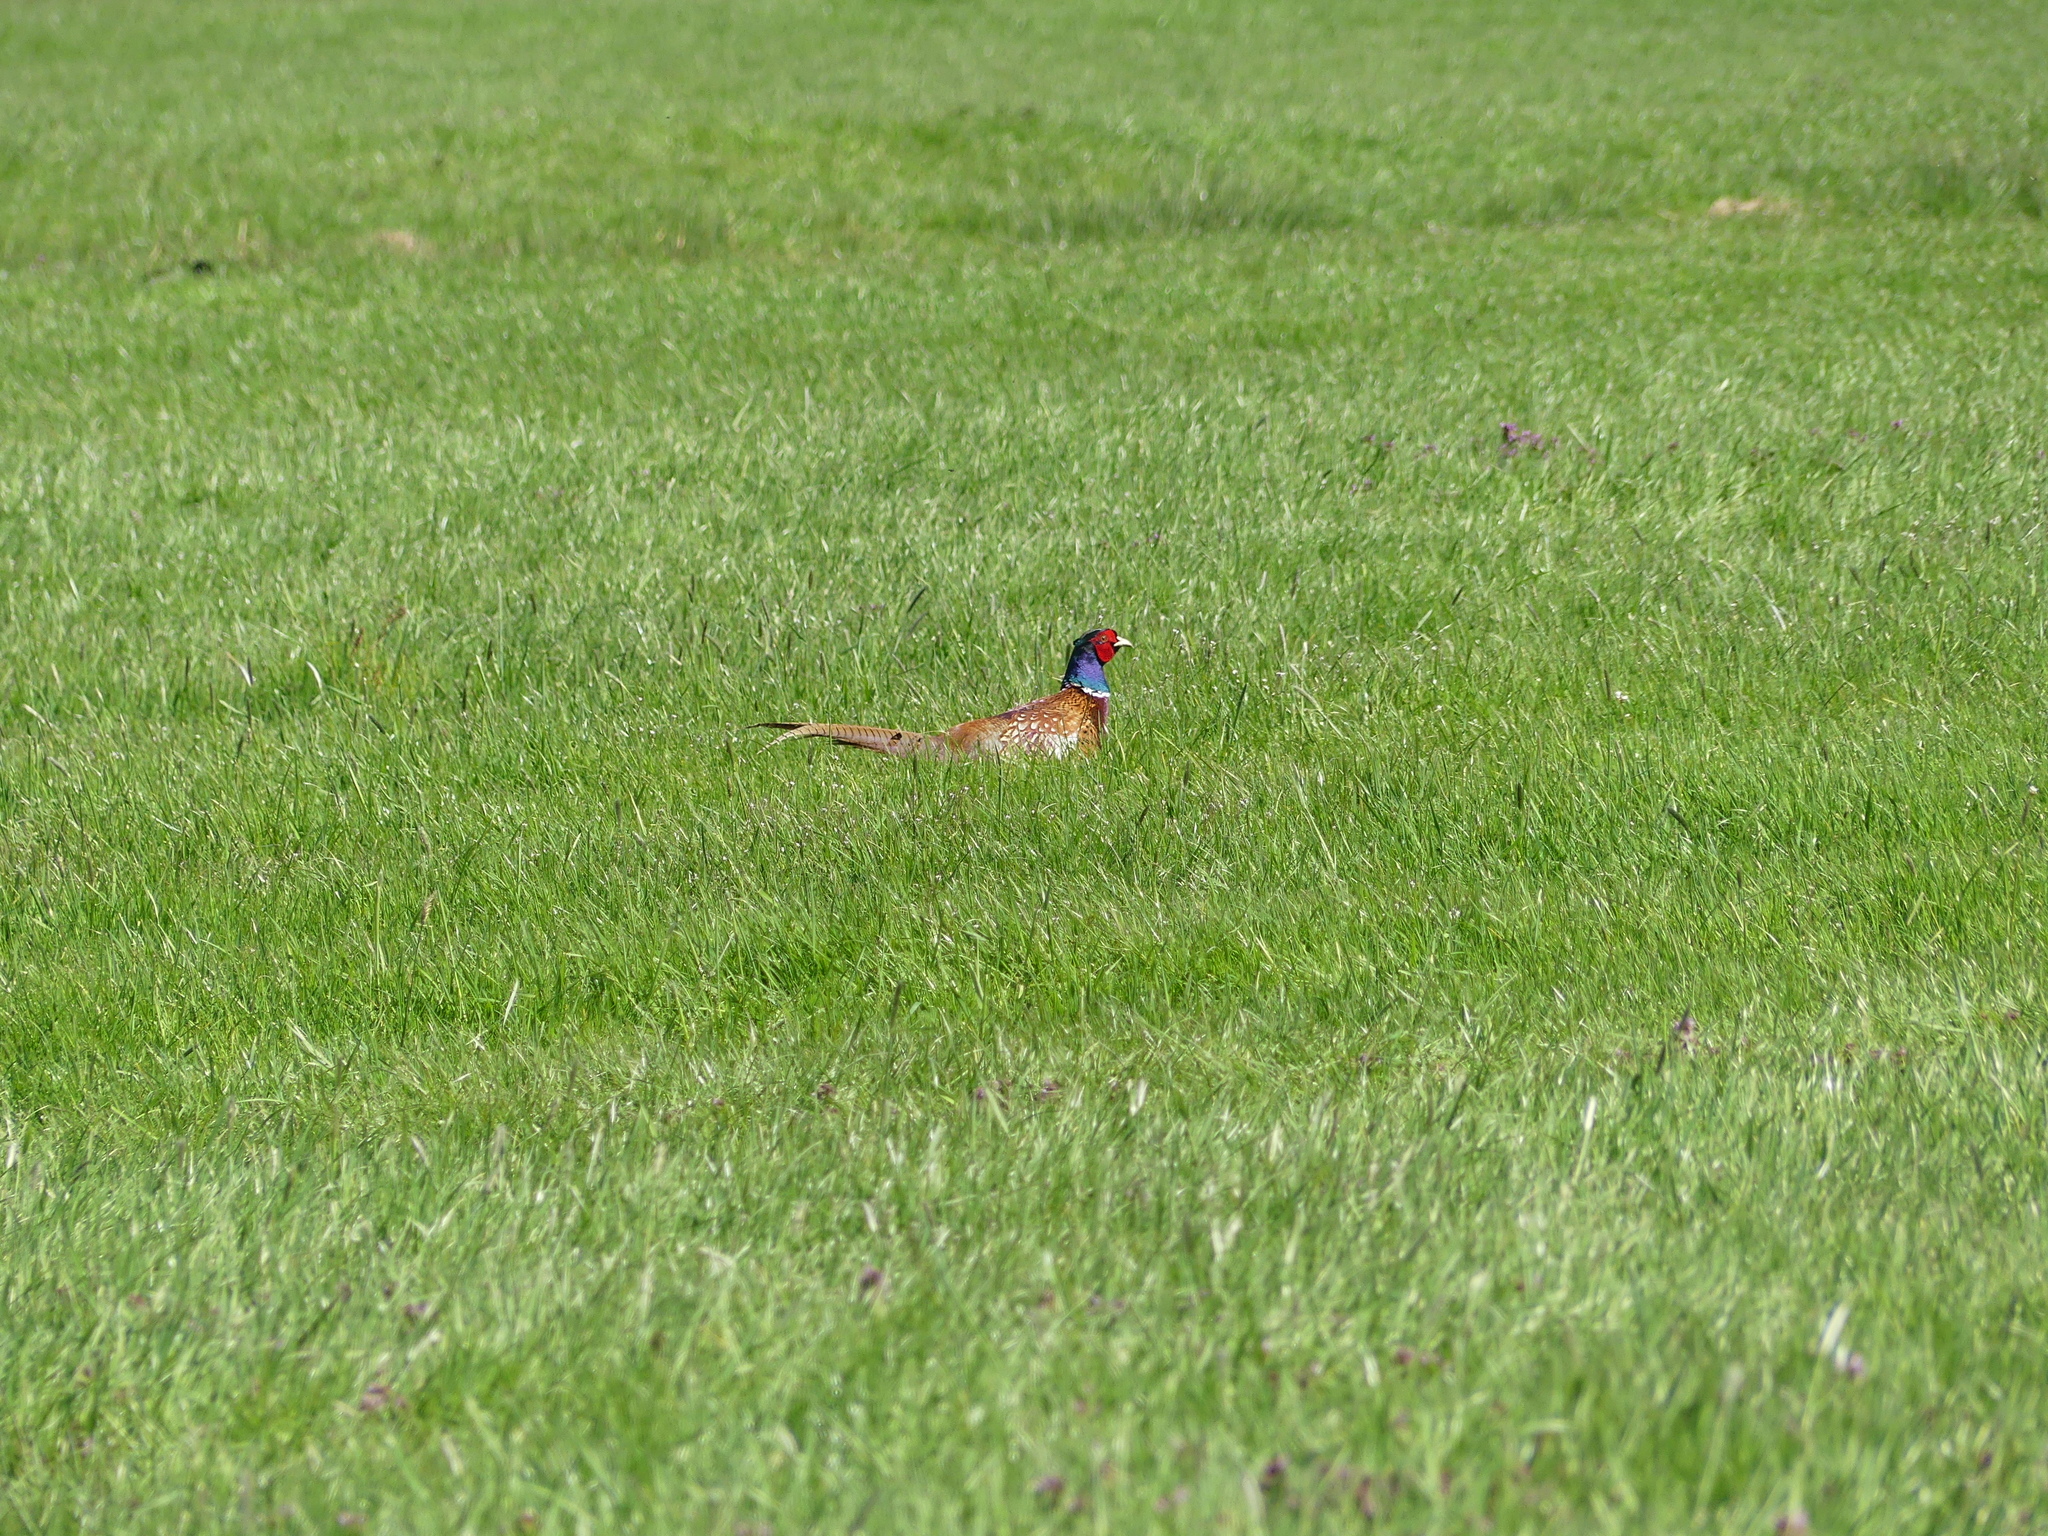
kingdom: Animalia
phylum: Chordata
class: Aves
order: Galliformes
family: Phasianidae
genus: Phasianus
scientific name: Phasianus colchicus
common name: Common pheasant
